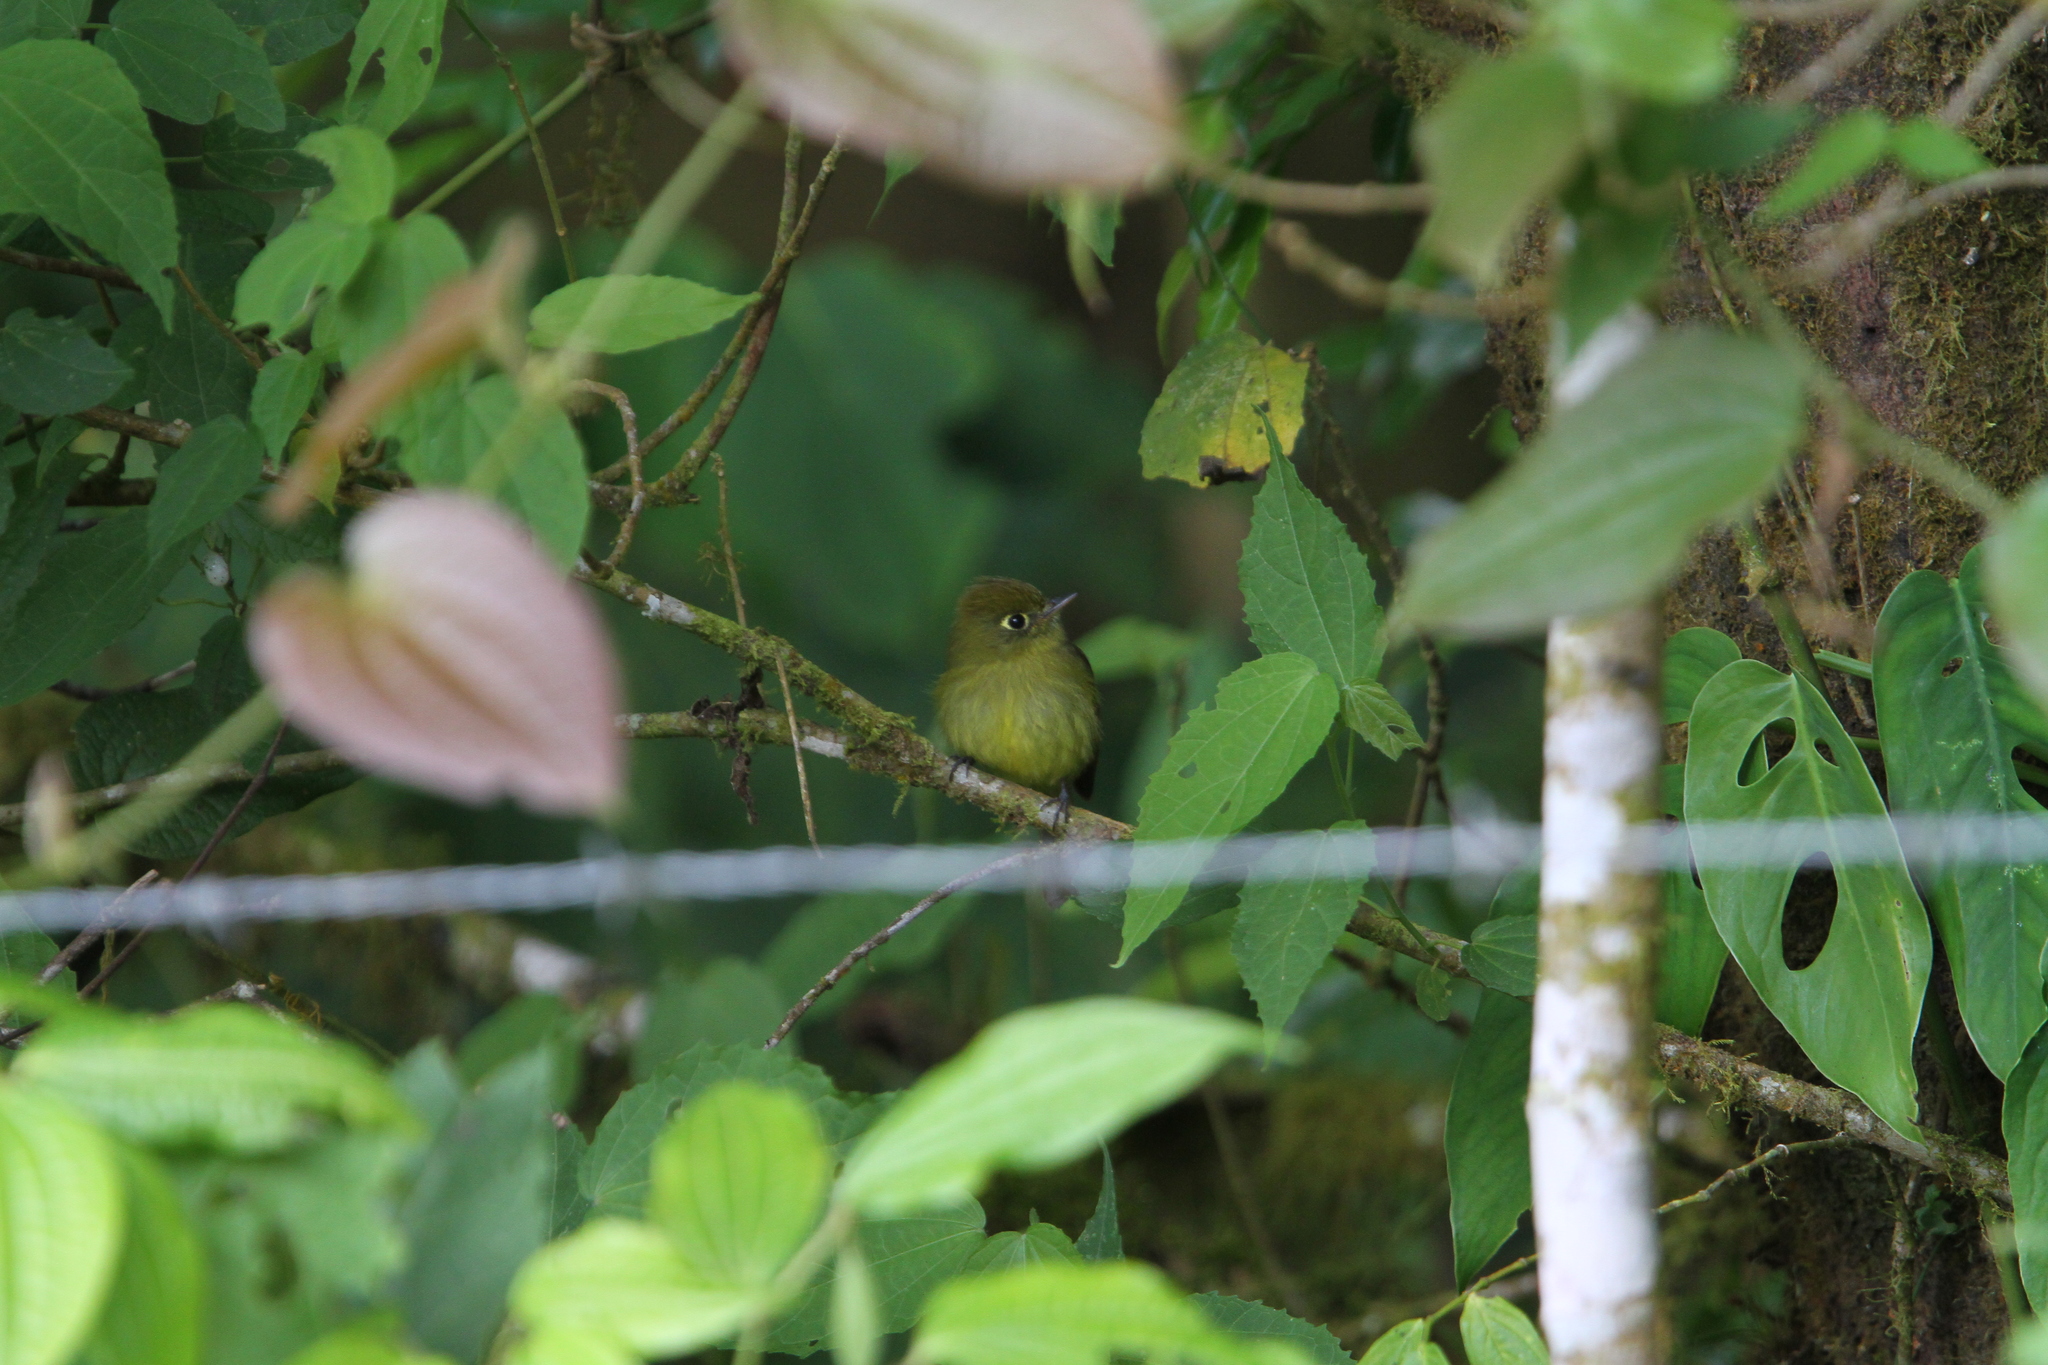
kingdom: Animalia
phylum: Chordata
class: Aves
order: Passeriformes
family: Tyrannidae
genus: Empidonax
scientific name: Empidonax flavescens
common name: Yellowish flycatcher
